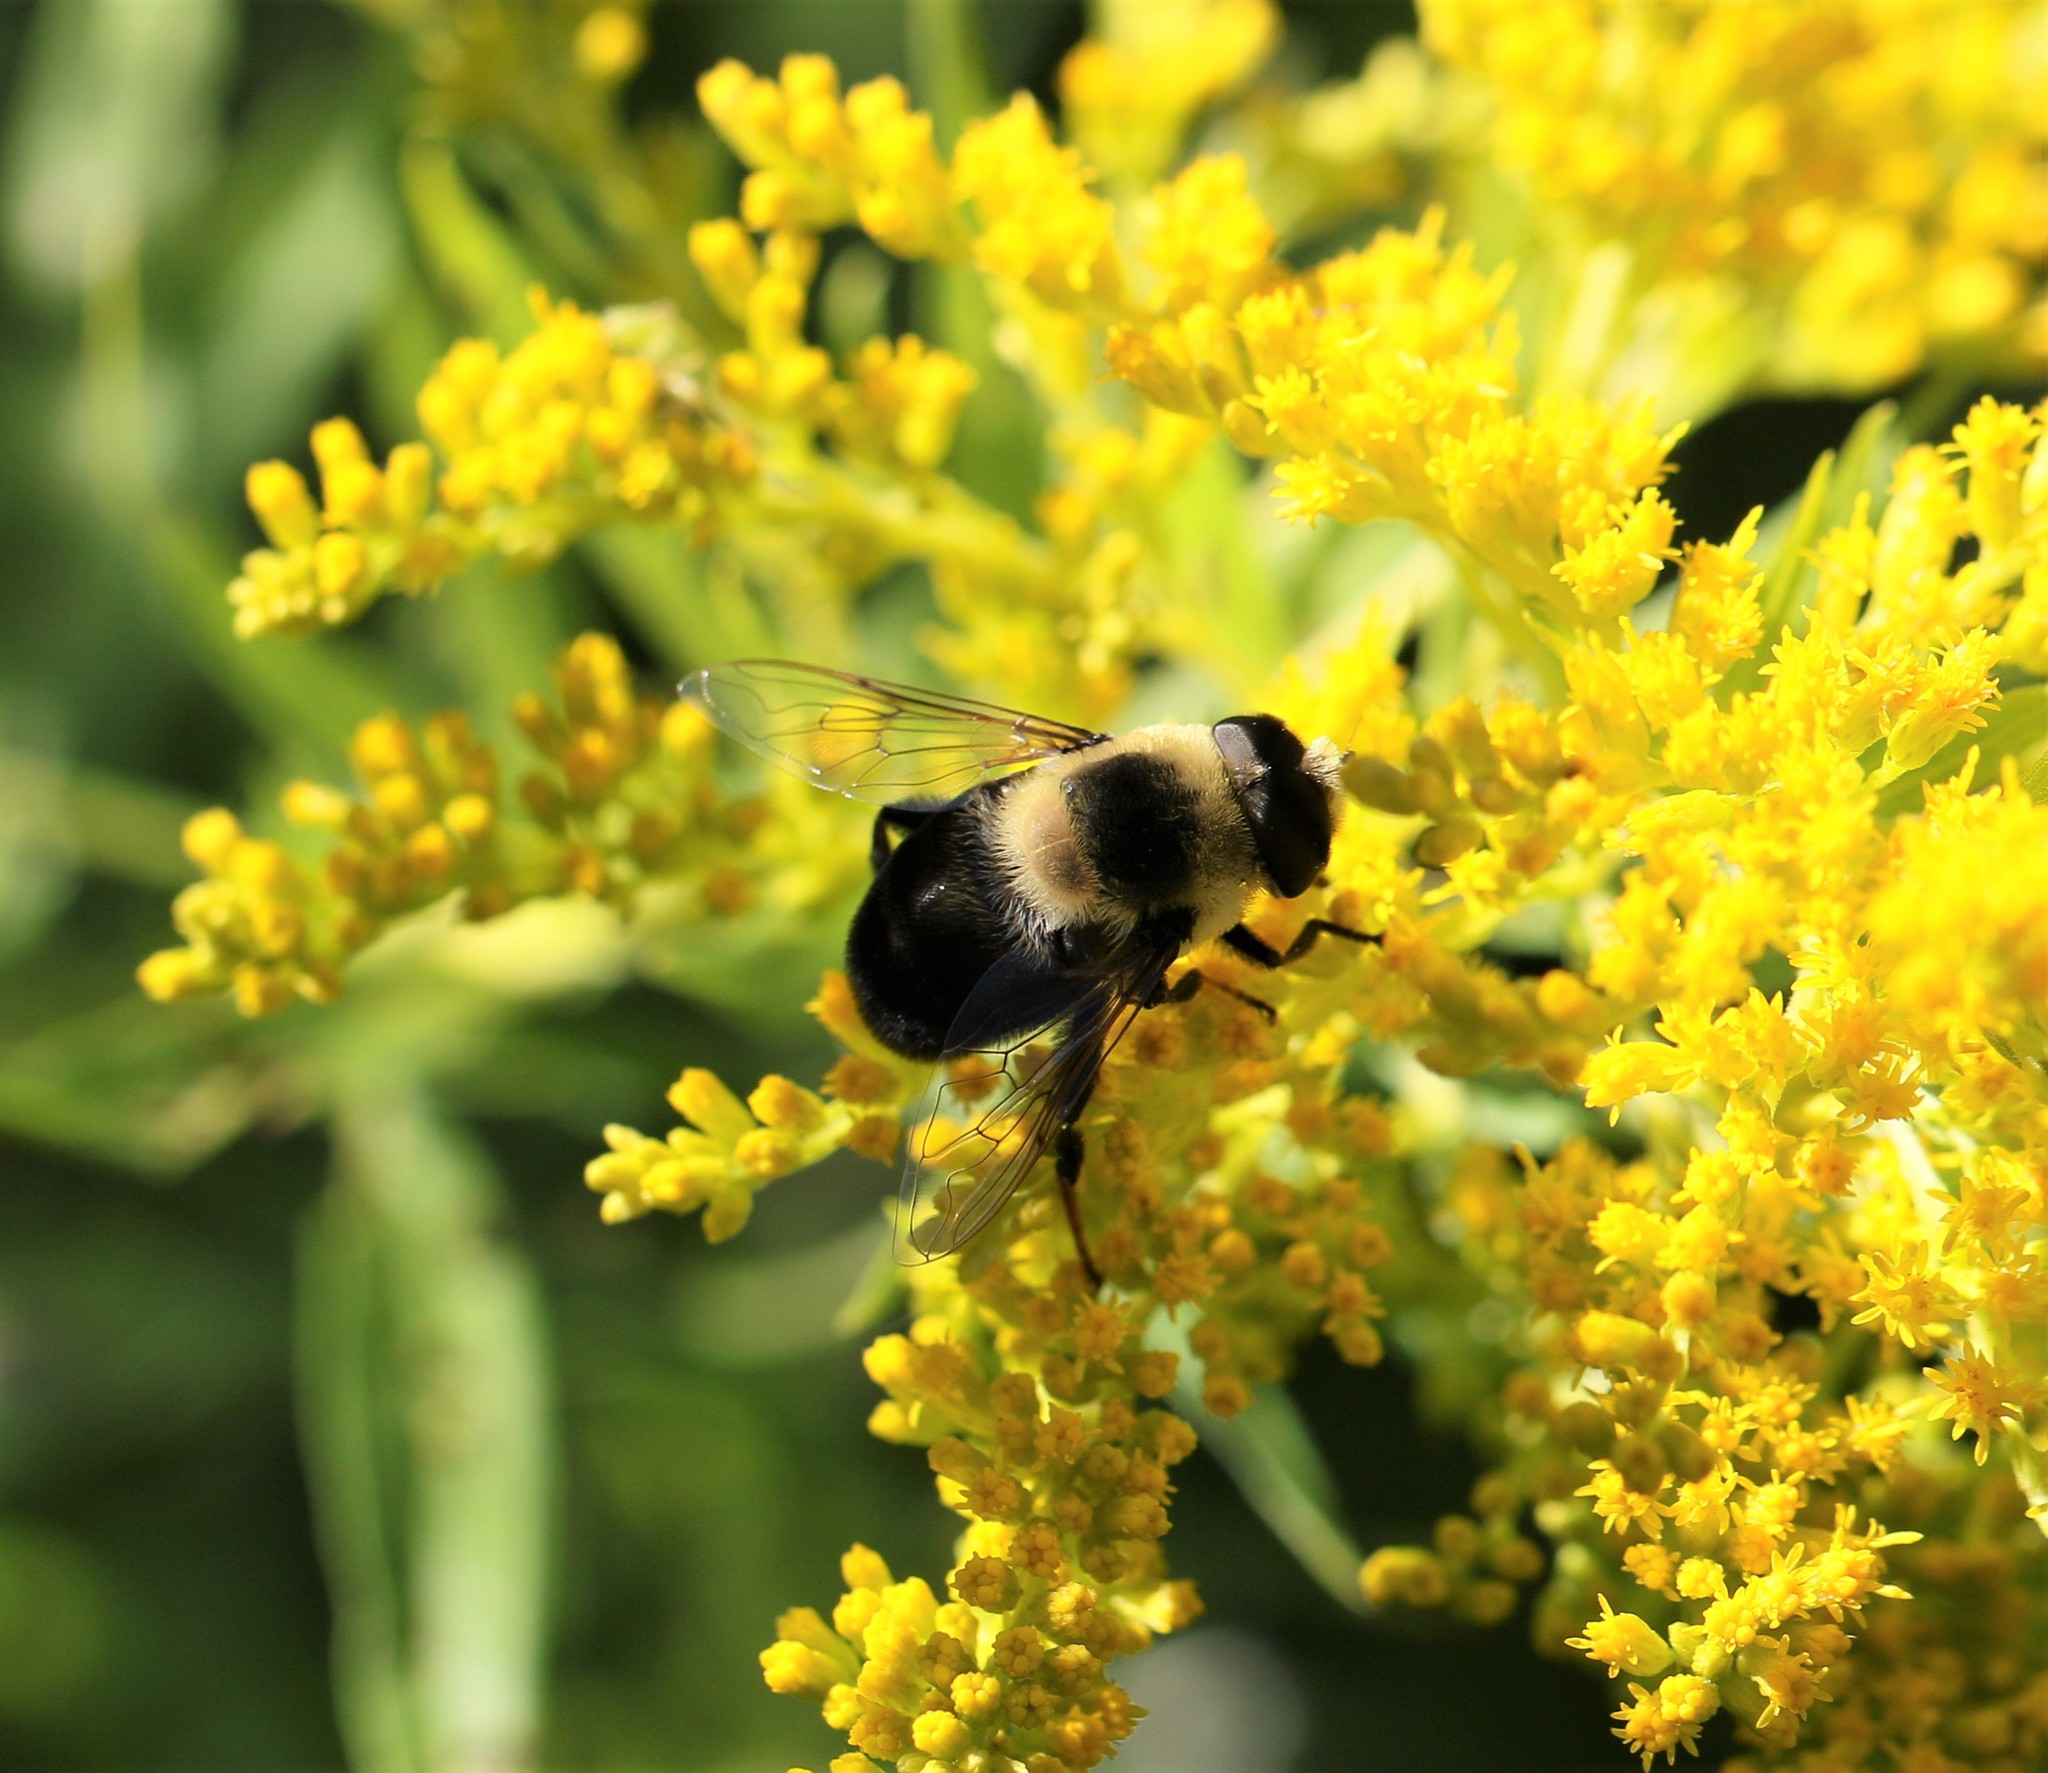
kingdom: Animalia
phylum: Arthropoda
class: Insecta
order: Diptera
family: Syrphidae
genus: Eristalis
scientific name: Eristalis flavipes
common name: Orange-legged drone fly
